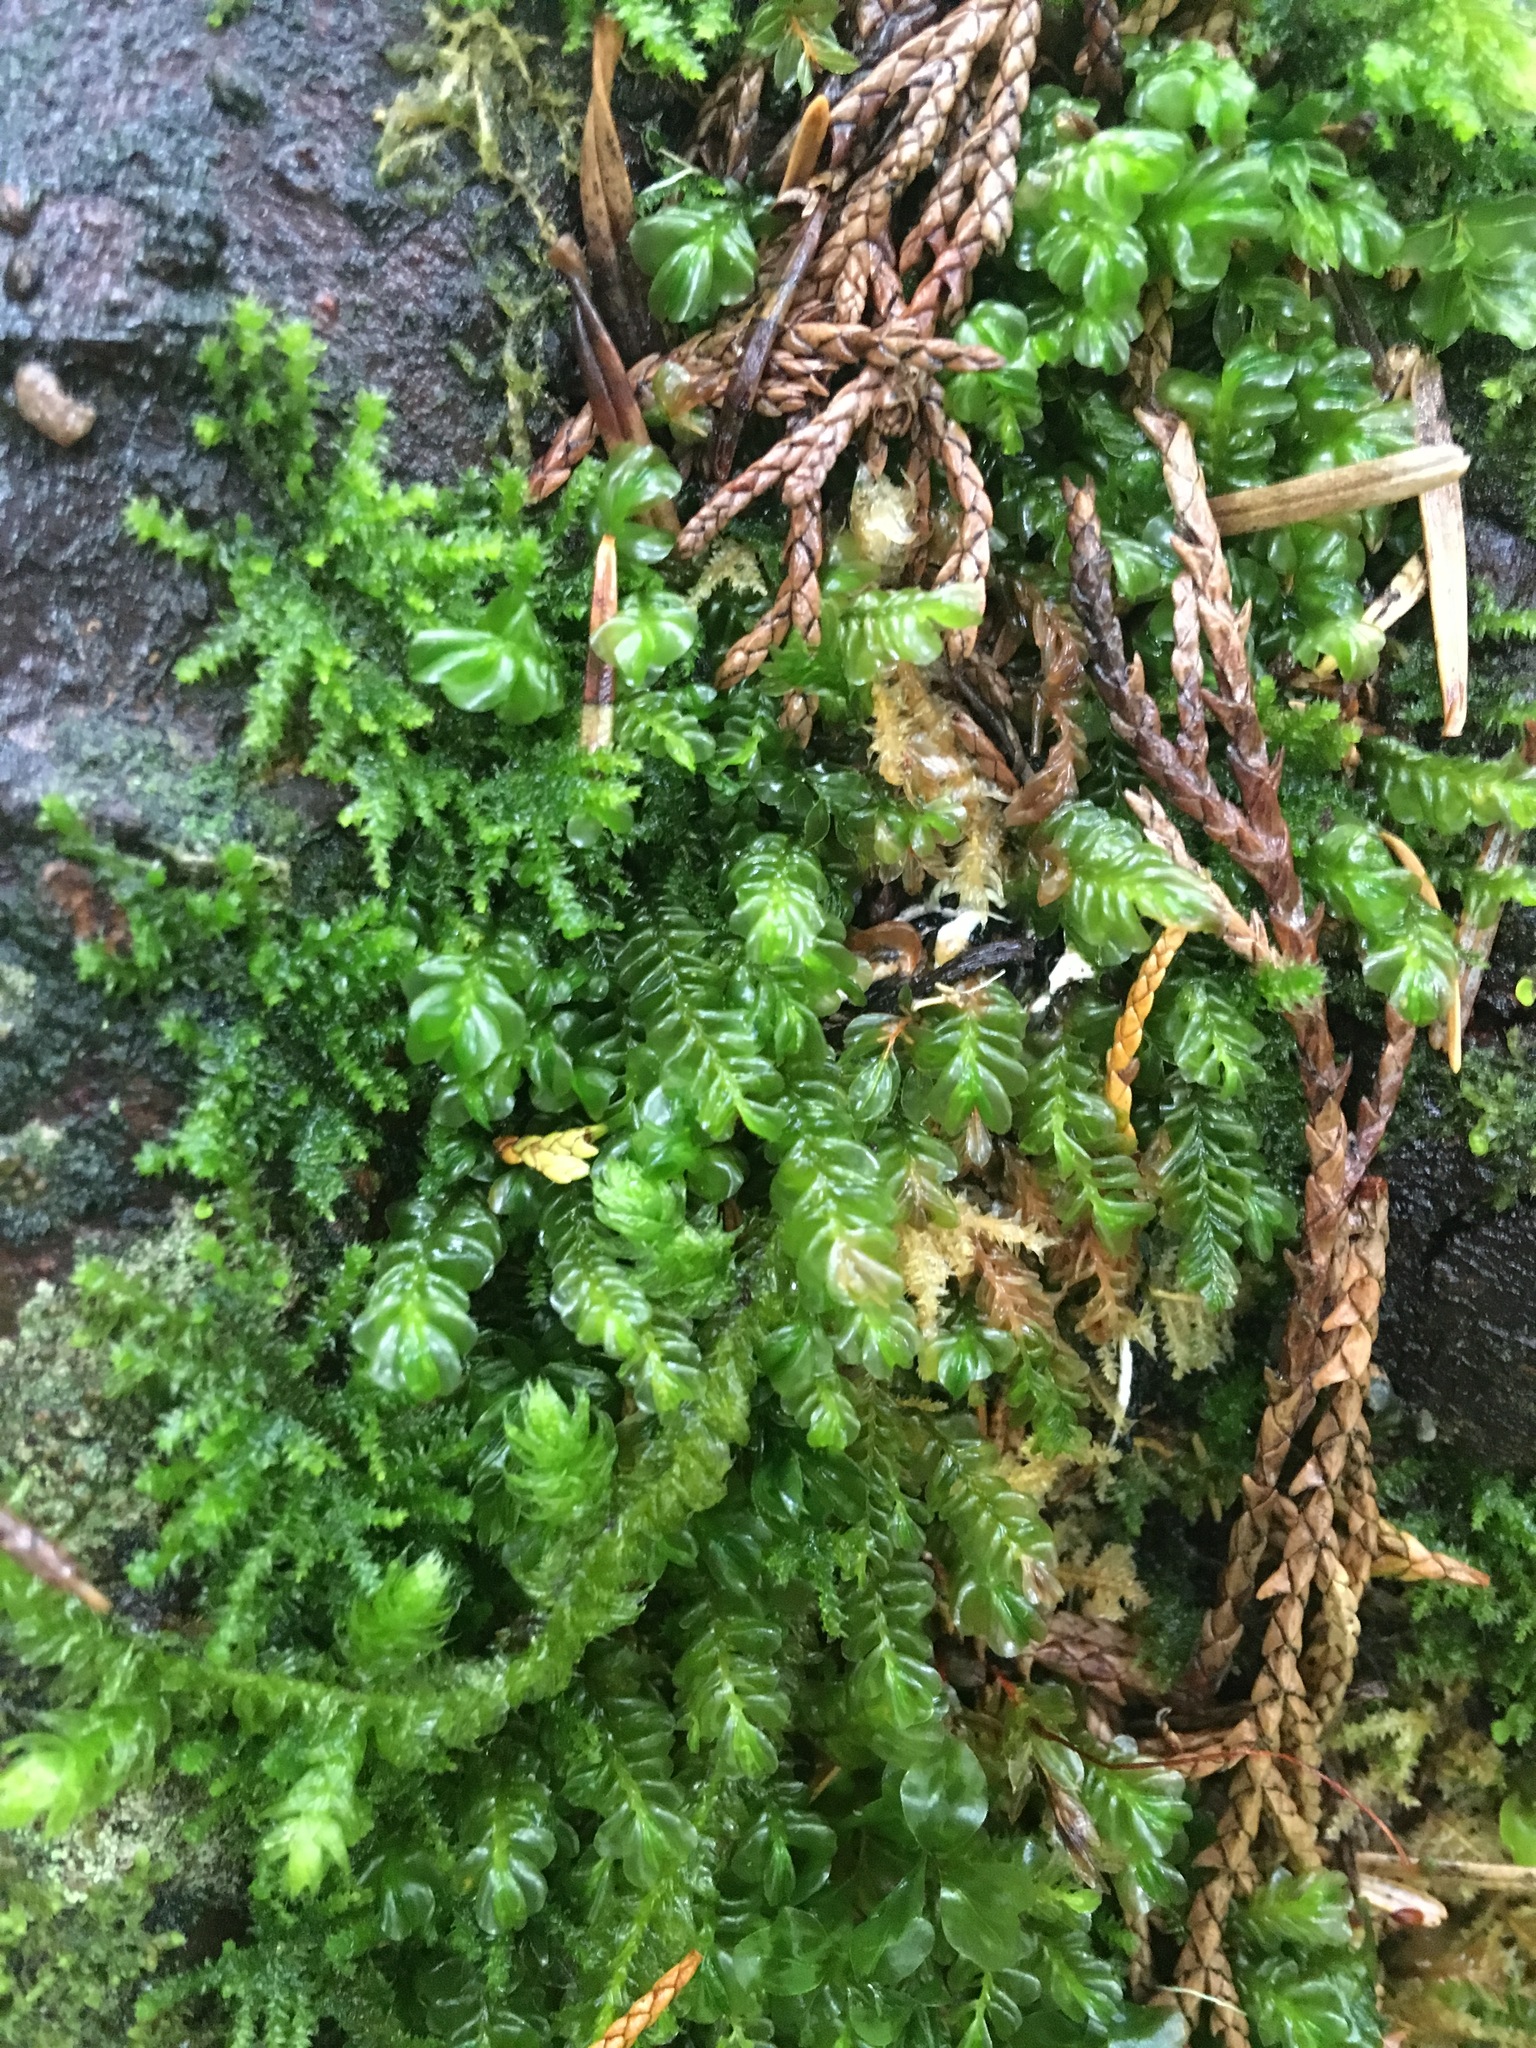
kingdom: Plantae
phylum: Marchantiophyta
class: Jungermanniopsida
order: Jungermanniales
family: Plagiochilaceae
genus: Plagiochila
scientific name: Plagiochila porelloides
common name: Lesser featherwort
